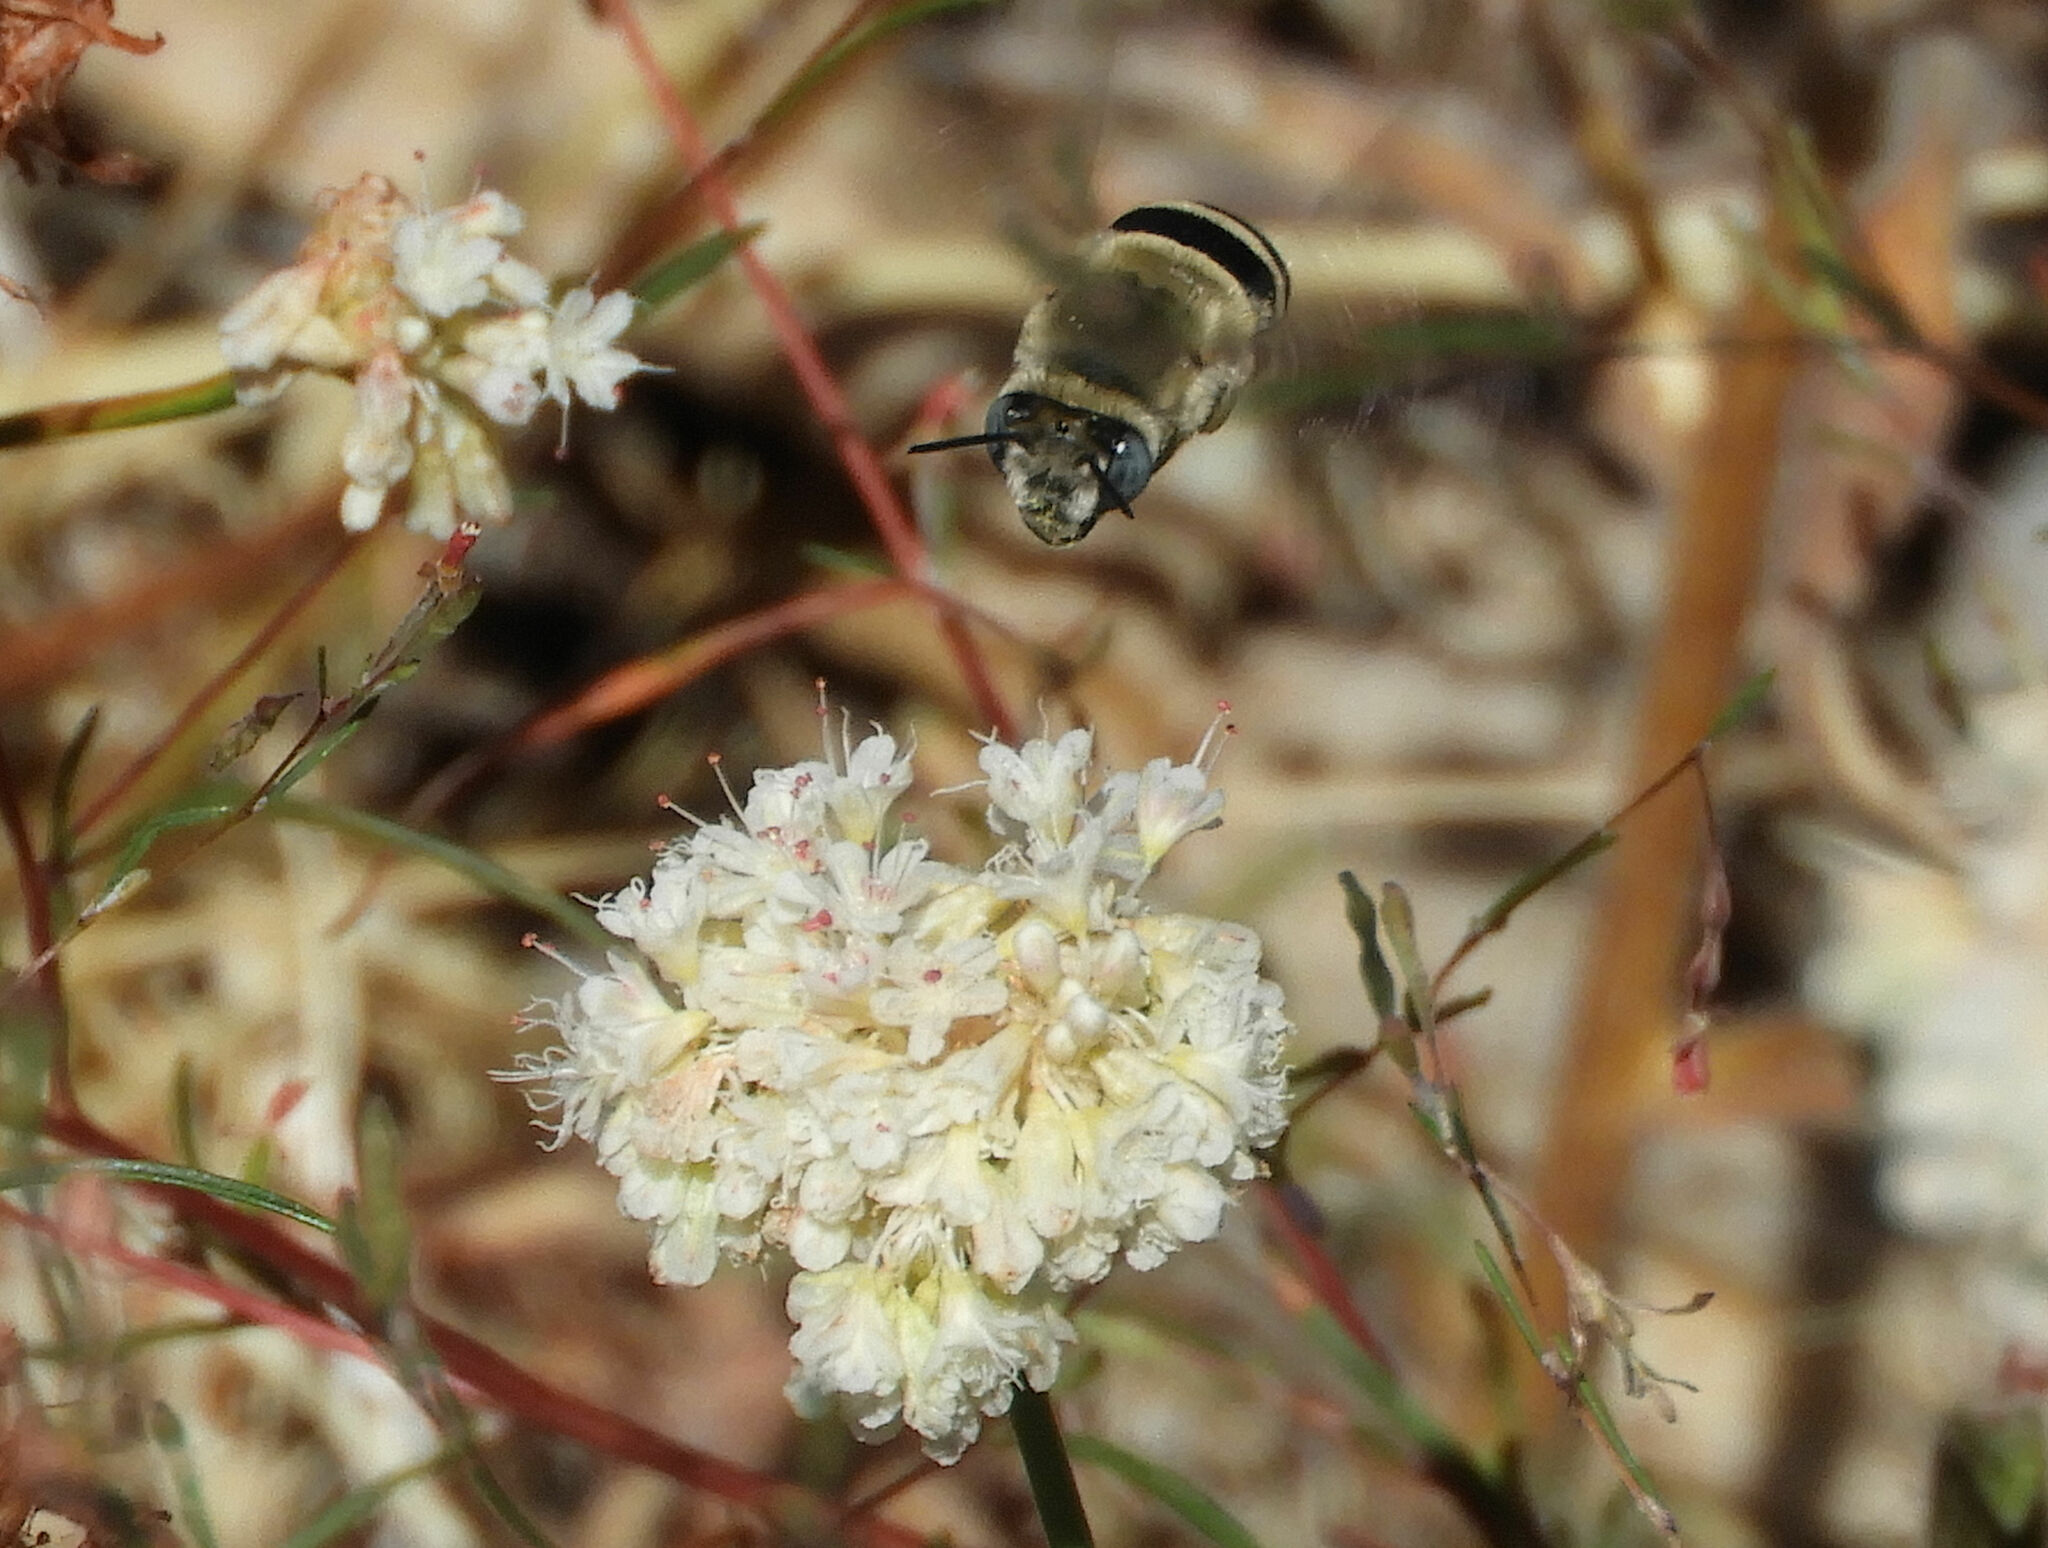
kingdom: Animalia
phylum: Arthropoda
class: Insecta
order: Hymenoptera
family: Apidae
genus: Anthophora
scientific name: Anthophora urbana
